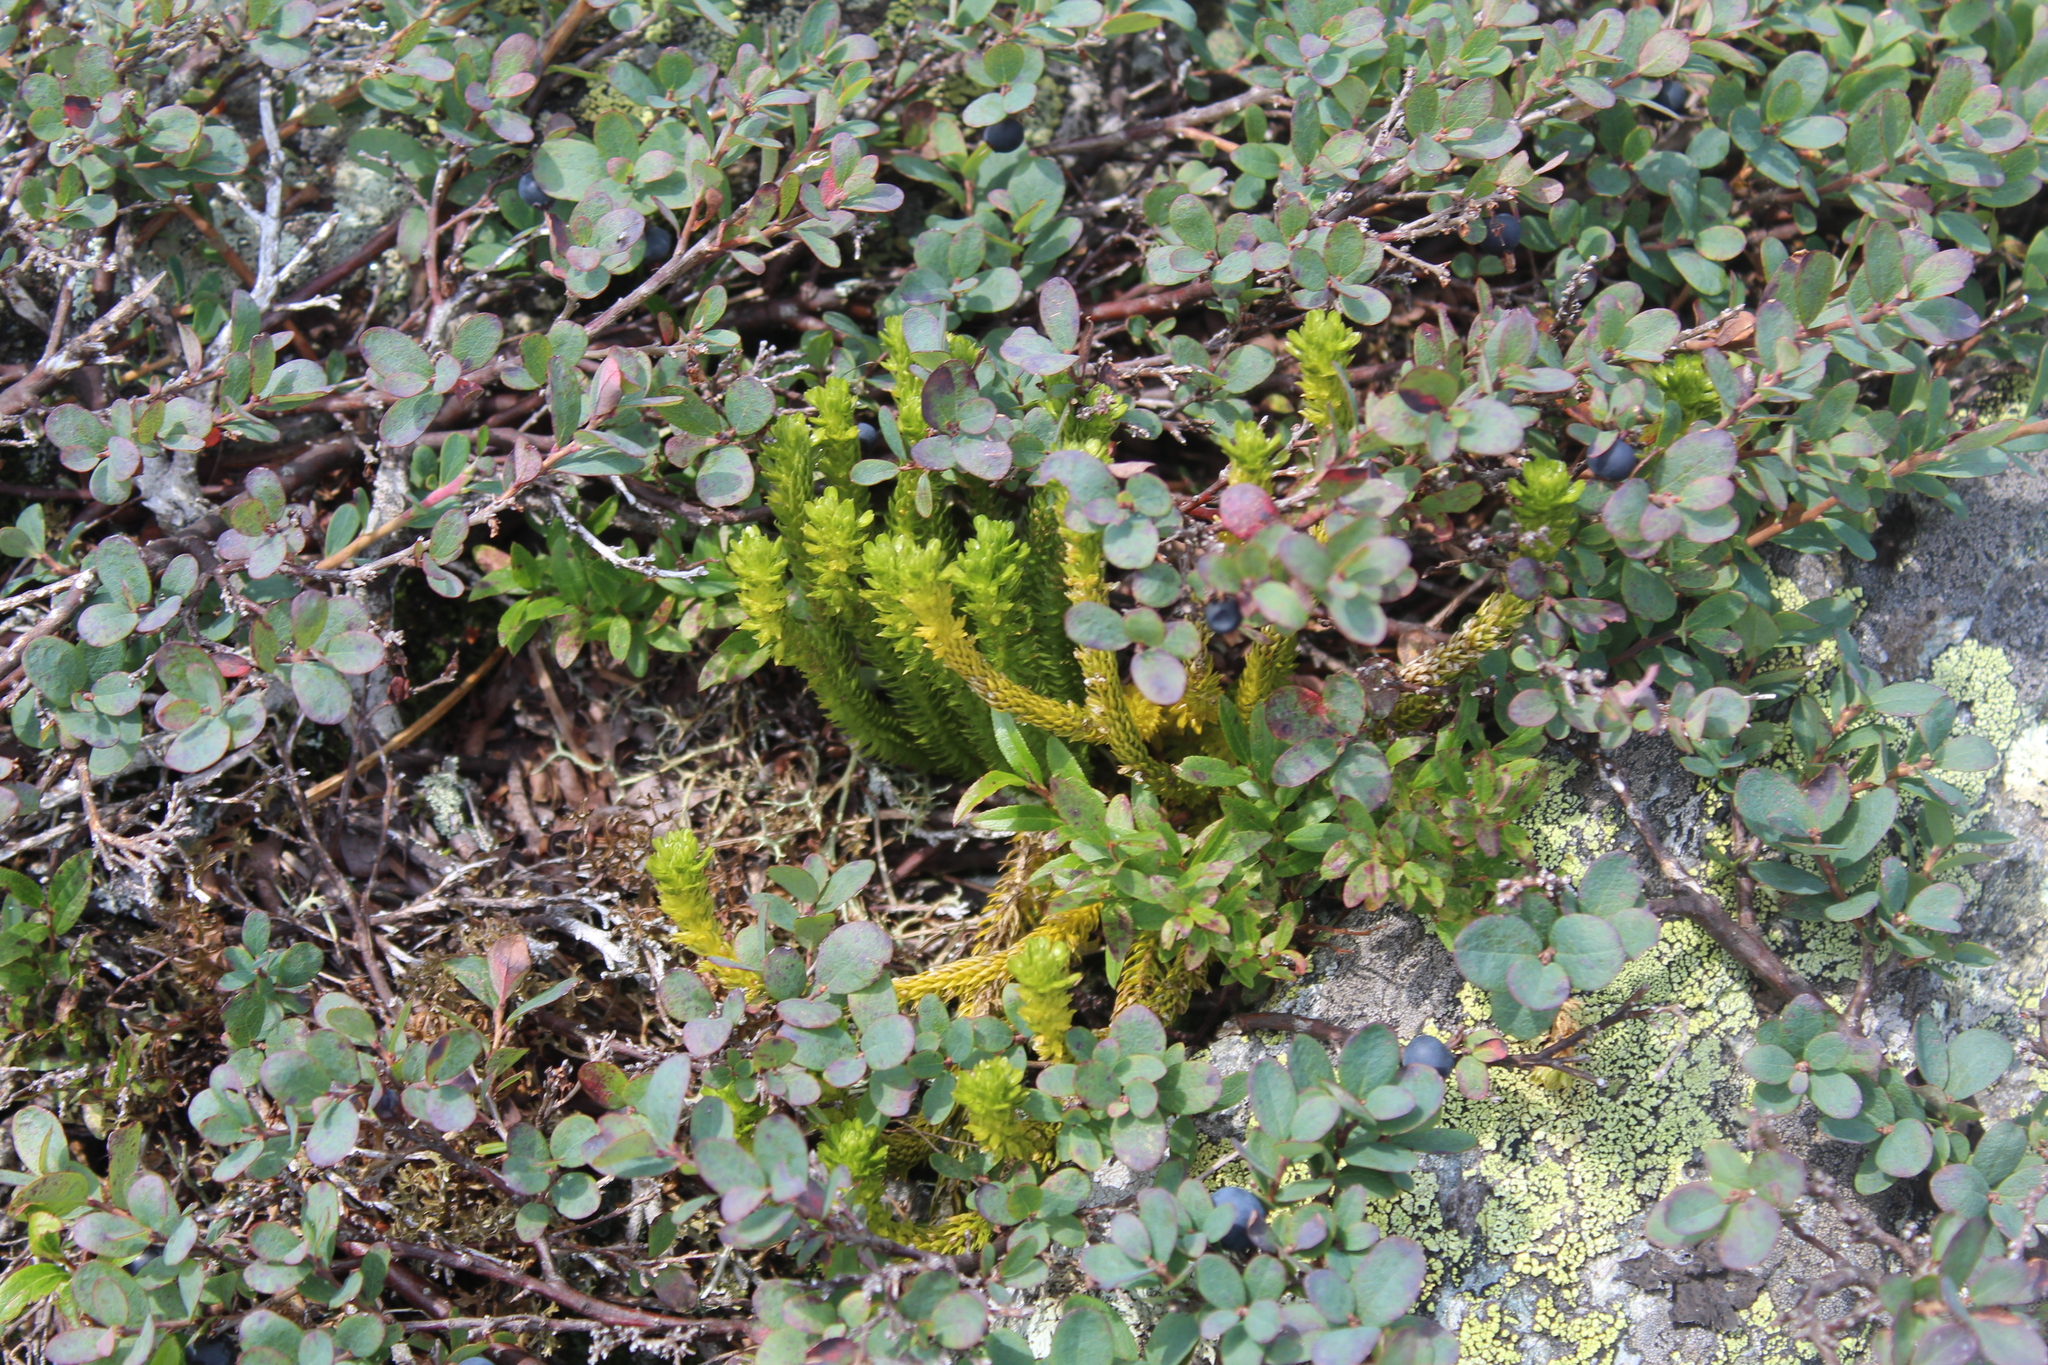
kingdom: Plantae
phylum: Tracheophyta
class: Magnoliopsida
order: Ericales
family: Ericaceae
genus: Vaccinium
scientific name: Vaccinium uliginosum
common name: Bog bilberry
